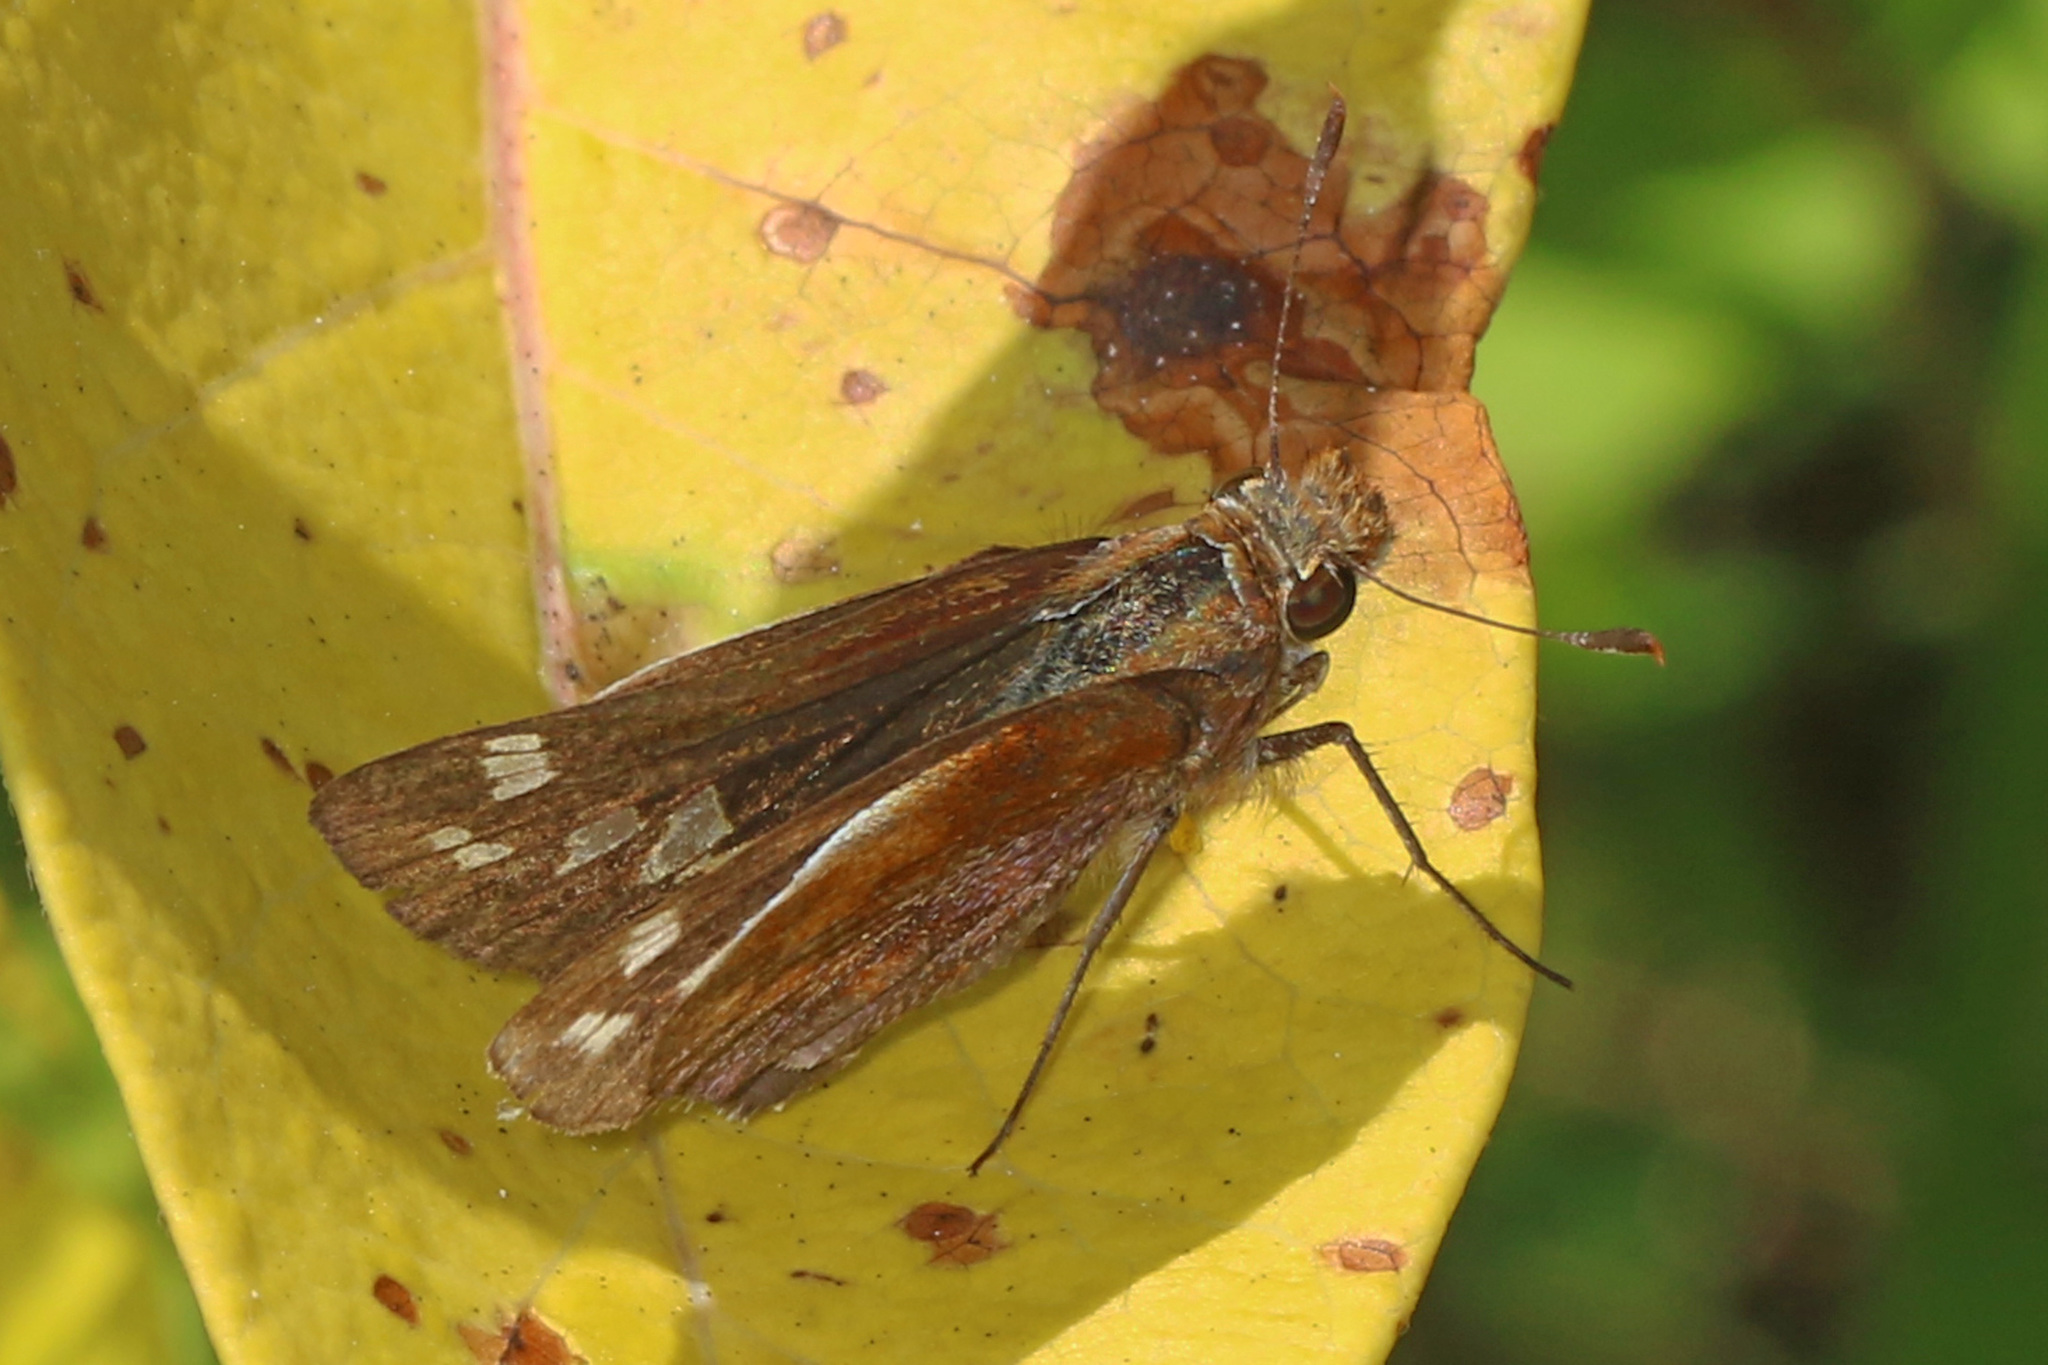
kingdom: Animalia
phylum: Arthropoda
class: Insecta
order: Lepidoptera
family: Hesperiidae
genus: Lon
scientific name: Lon zabulon
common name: Zabulon skipper
